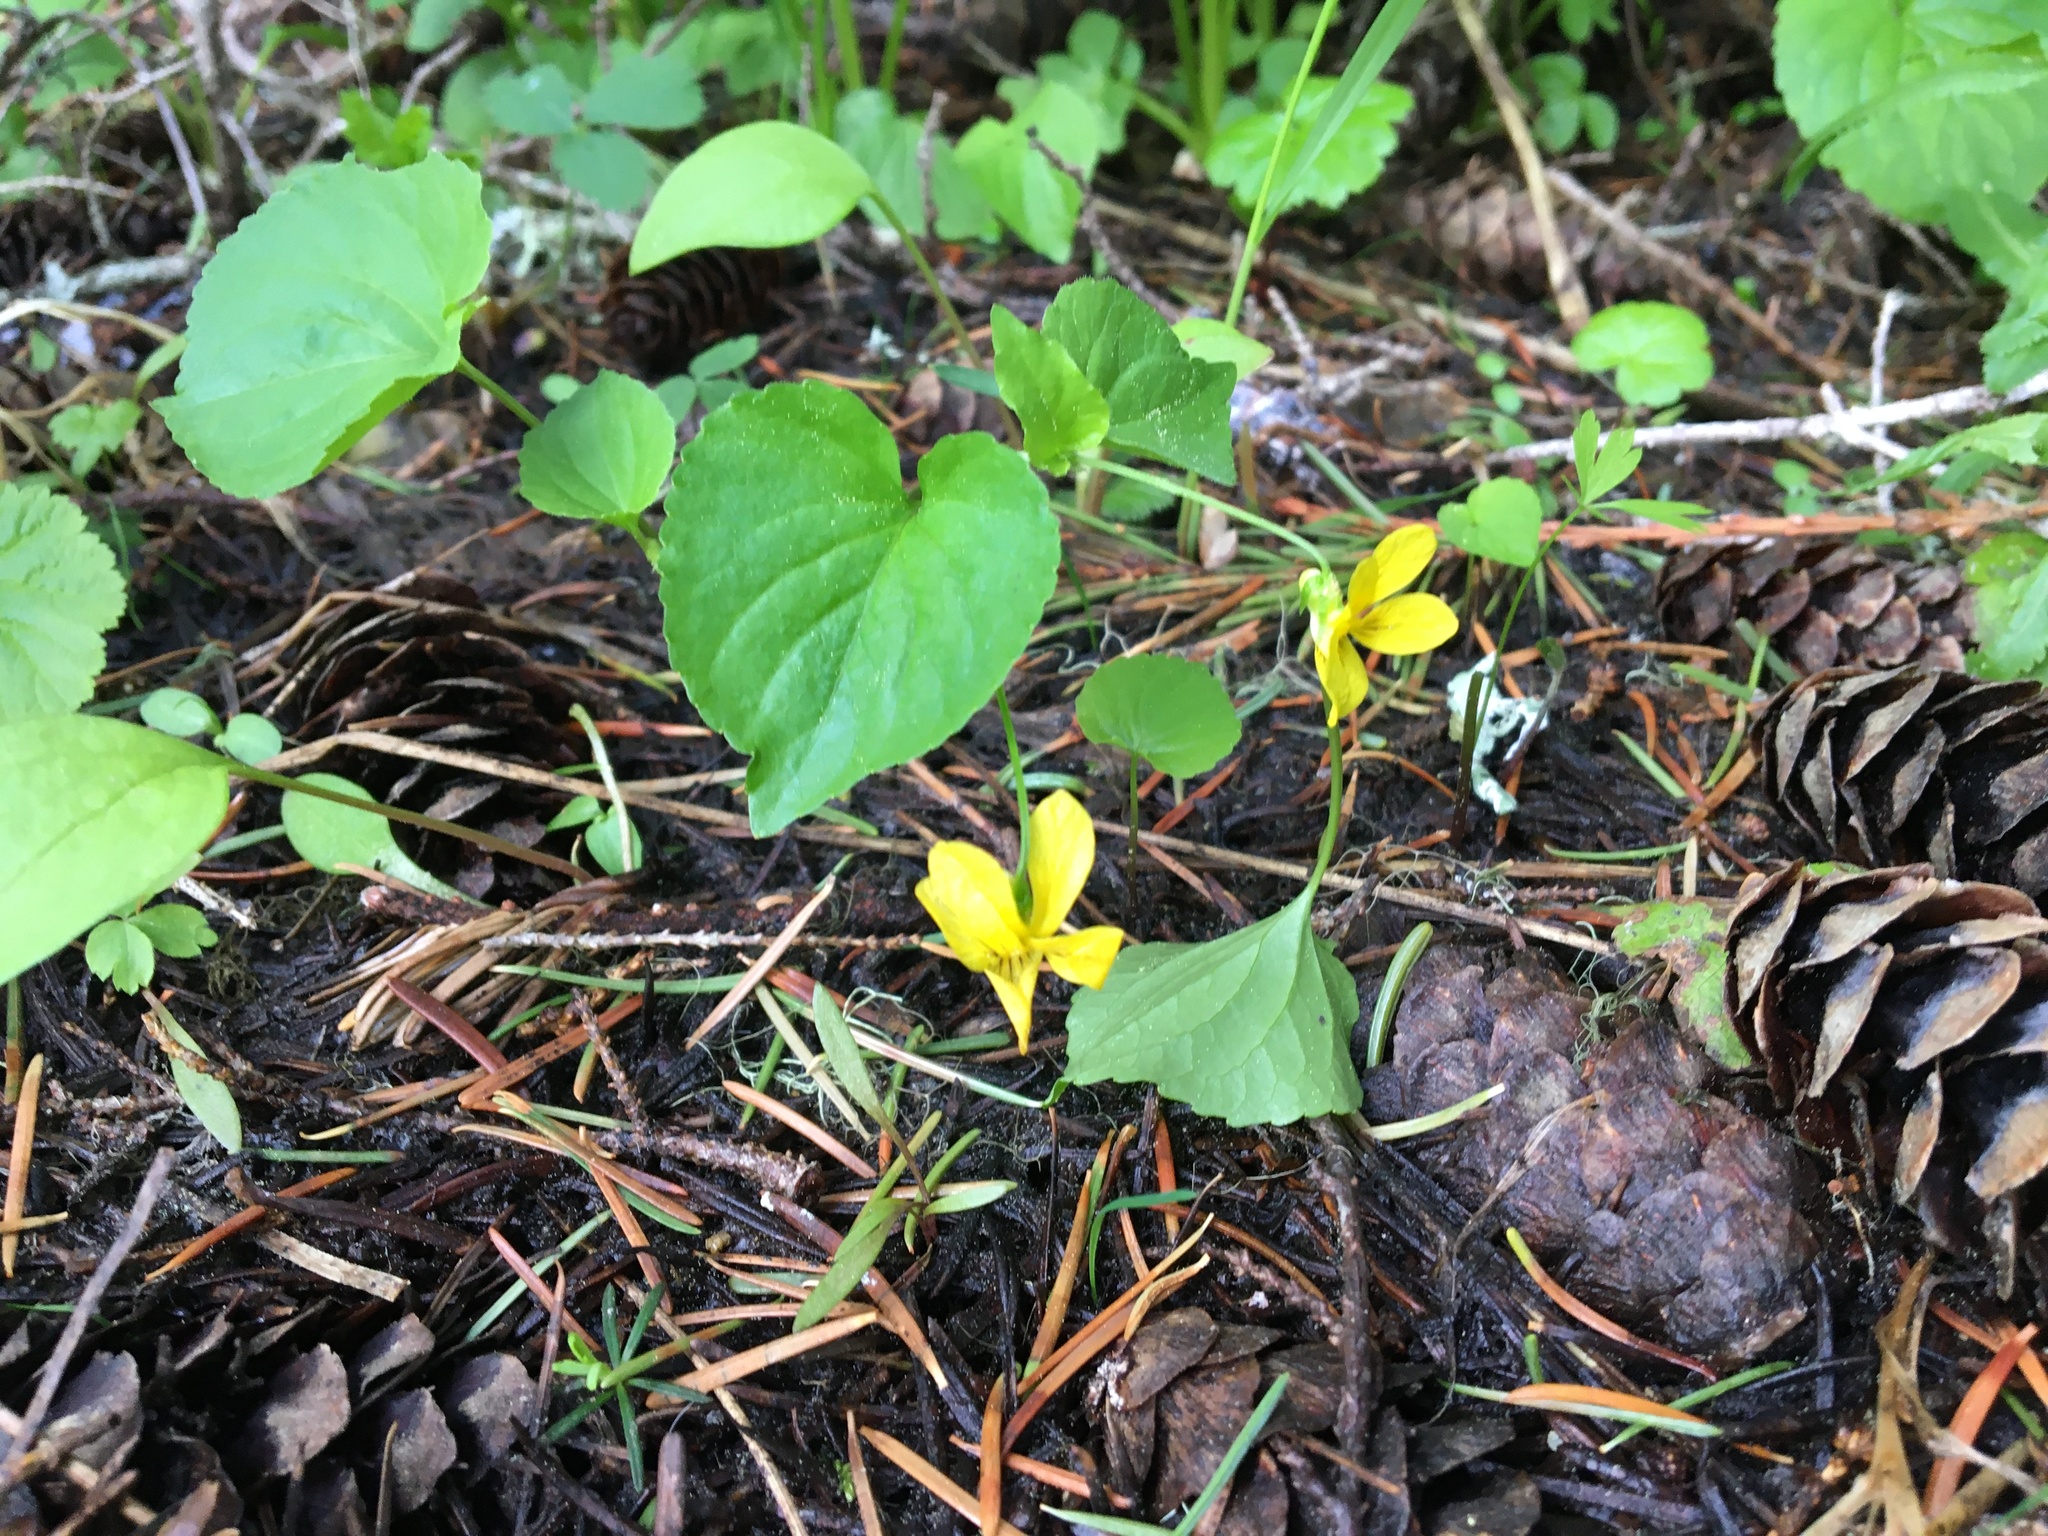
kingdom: Plantae
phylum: Tracheophyta
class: Magnoliopsida
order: Malpighiales
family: Violaceae
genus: Viola
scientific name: Viola glabella
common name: Stream violet
